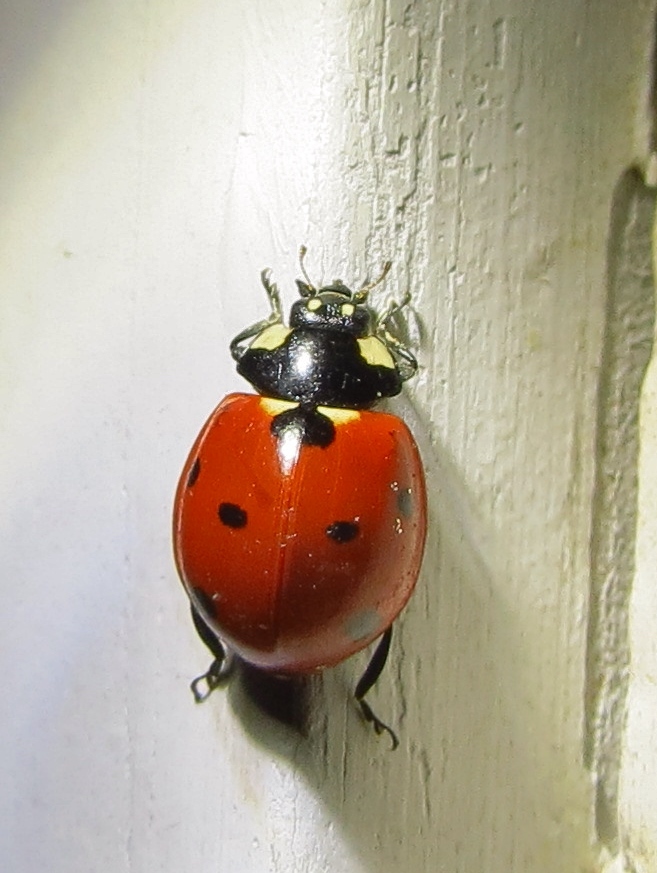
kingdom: Animalia
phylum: Arthropoda
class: Insecta
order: Coleoptera
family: Coccinellidae
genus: Coccinella
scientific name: Coccinella septempunctata
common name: Sevenspotted lady beetle
